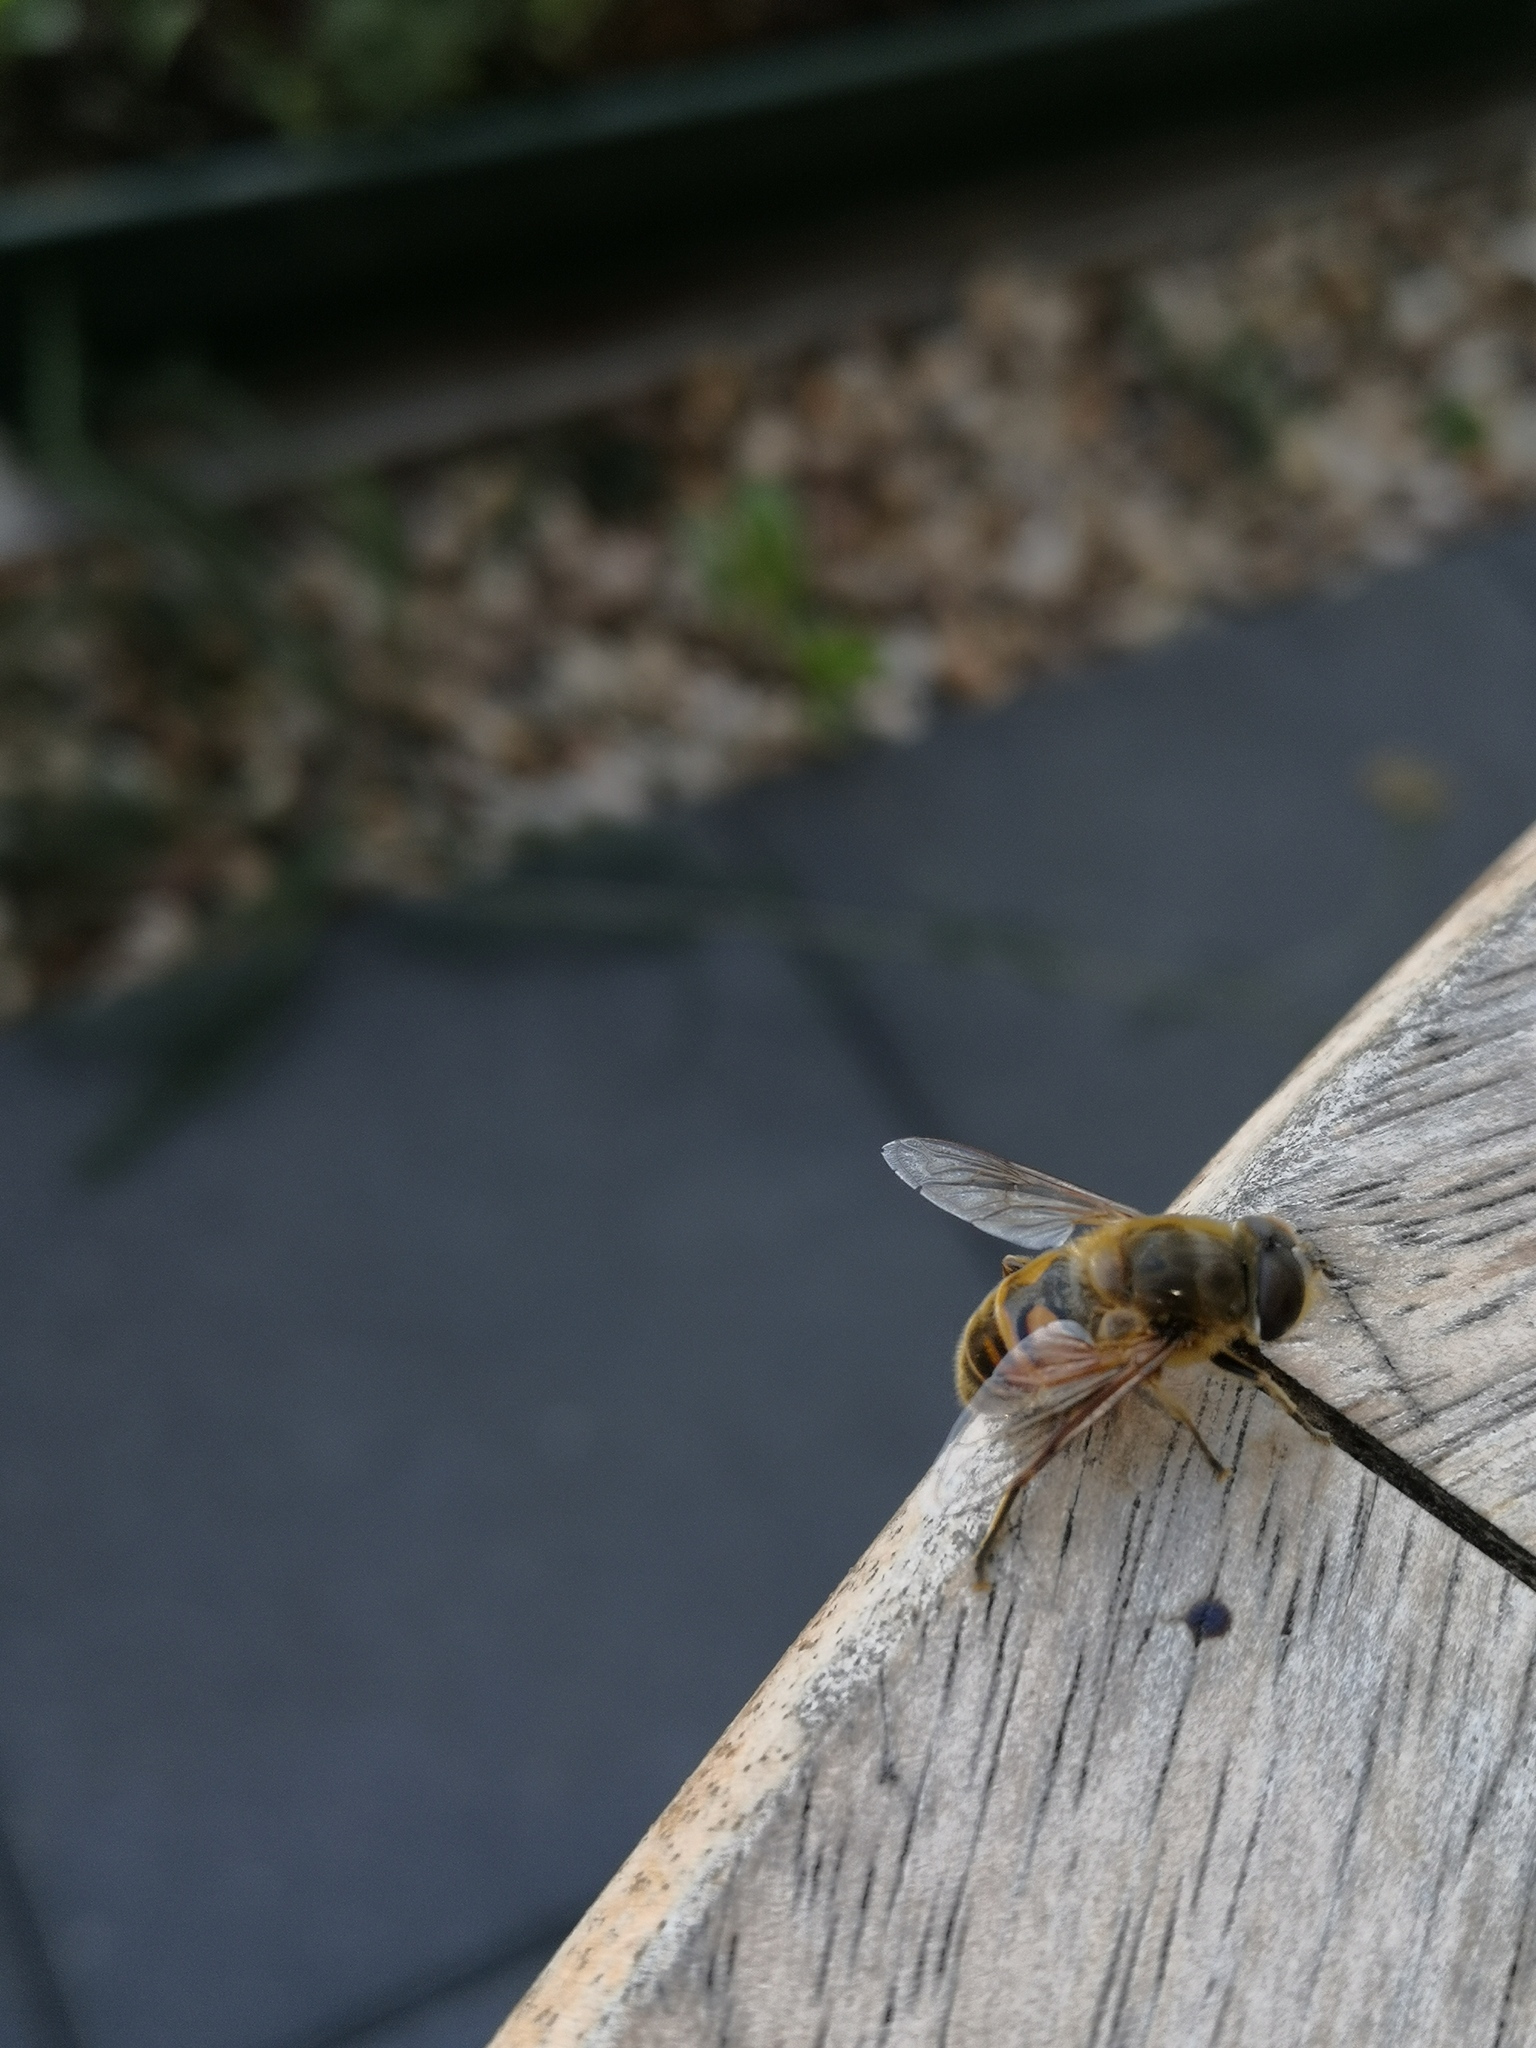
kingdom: Animalia
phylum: Arthropoda
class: Insecta
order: Diptera
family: Syrphidae
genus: Eristalis
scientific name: Eristalis tenax
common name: Drone fly
